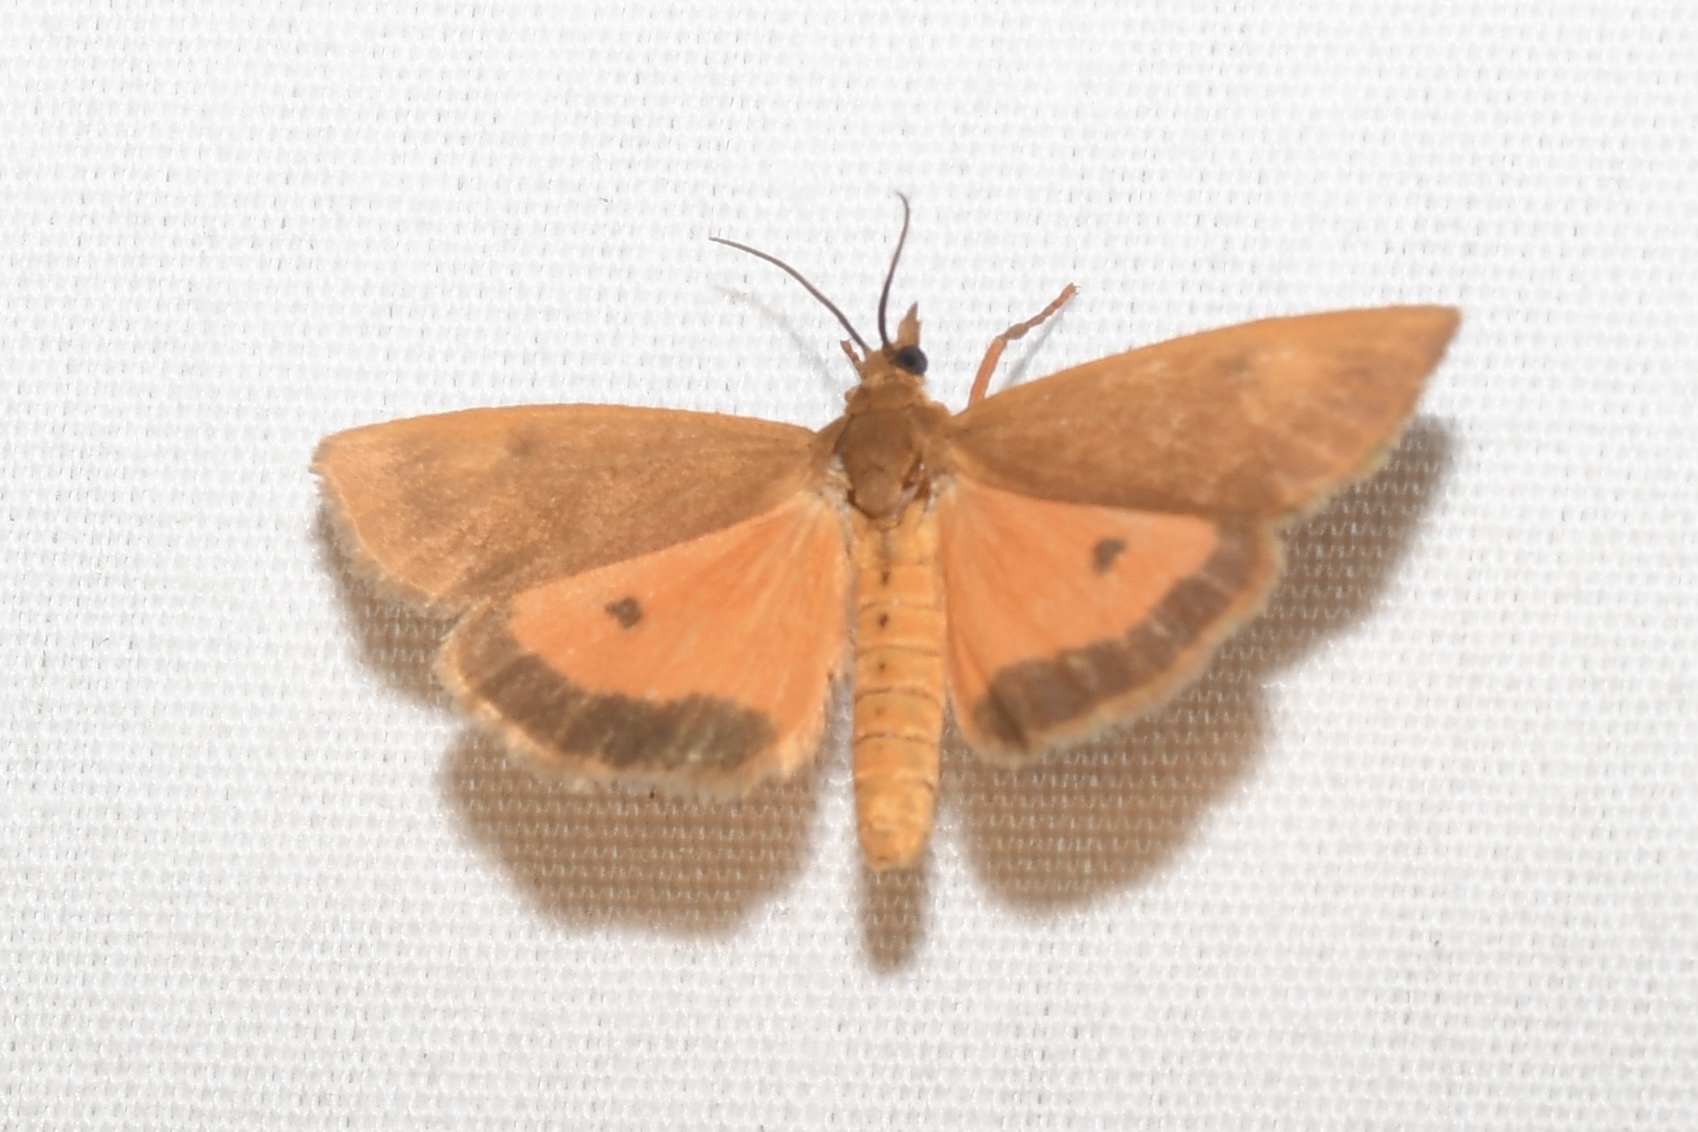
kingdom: Animalia
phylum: Arthropoda
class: Insecta
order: Lepidoptera
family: Erebidae
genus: Virbia
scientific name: Virbia aurantiaca
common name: Orange virbia moth
